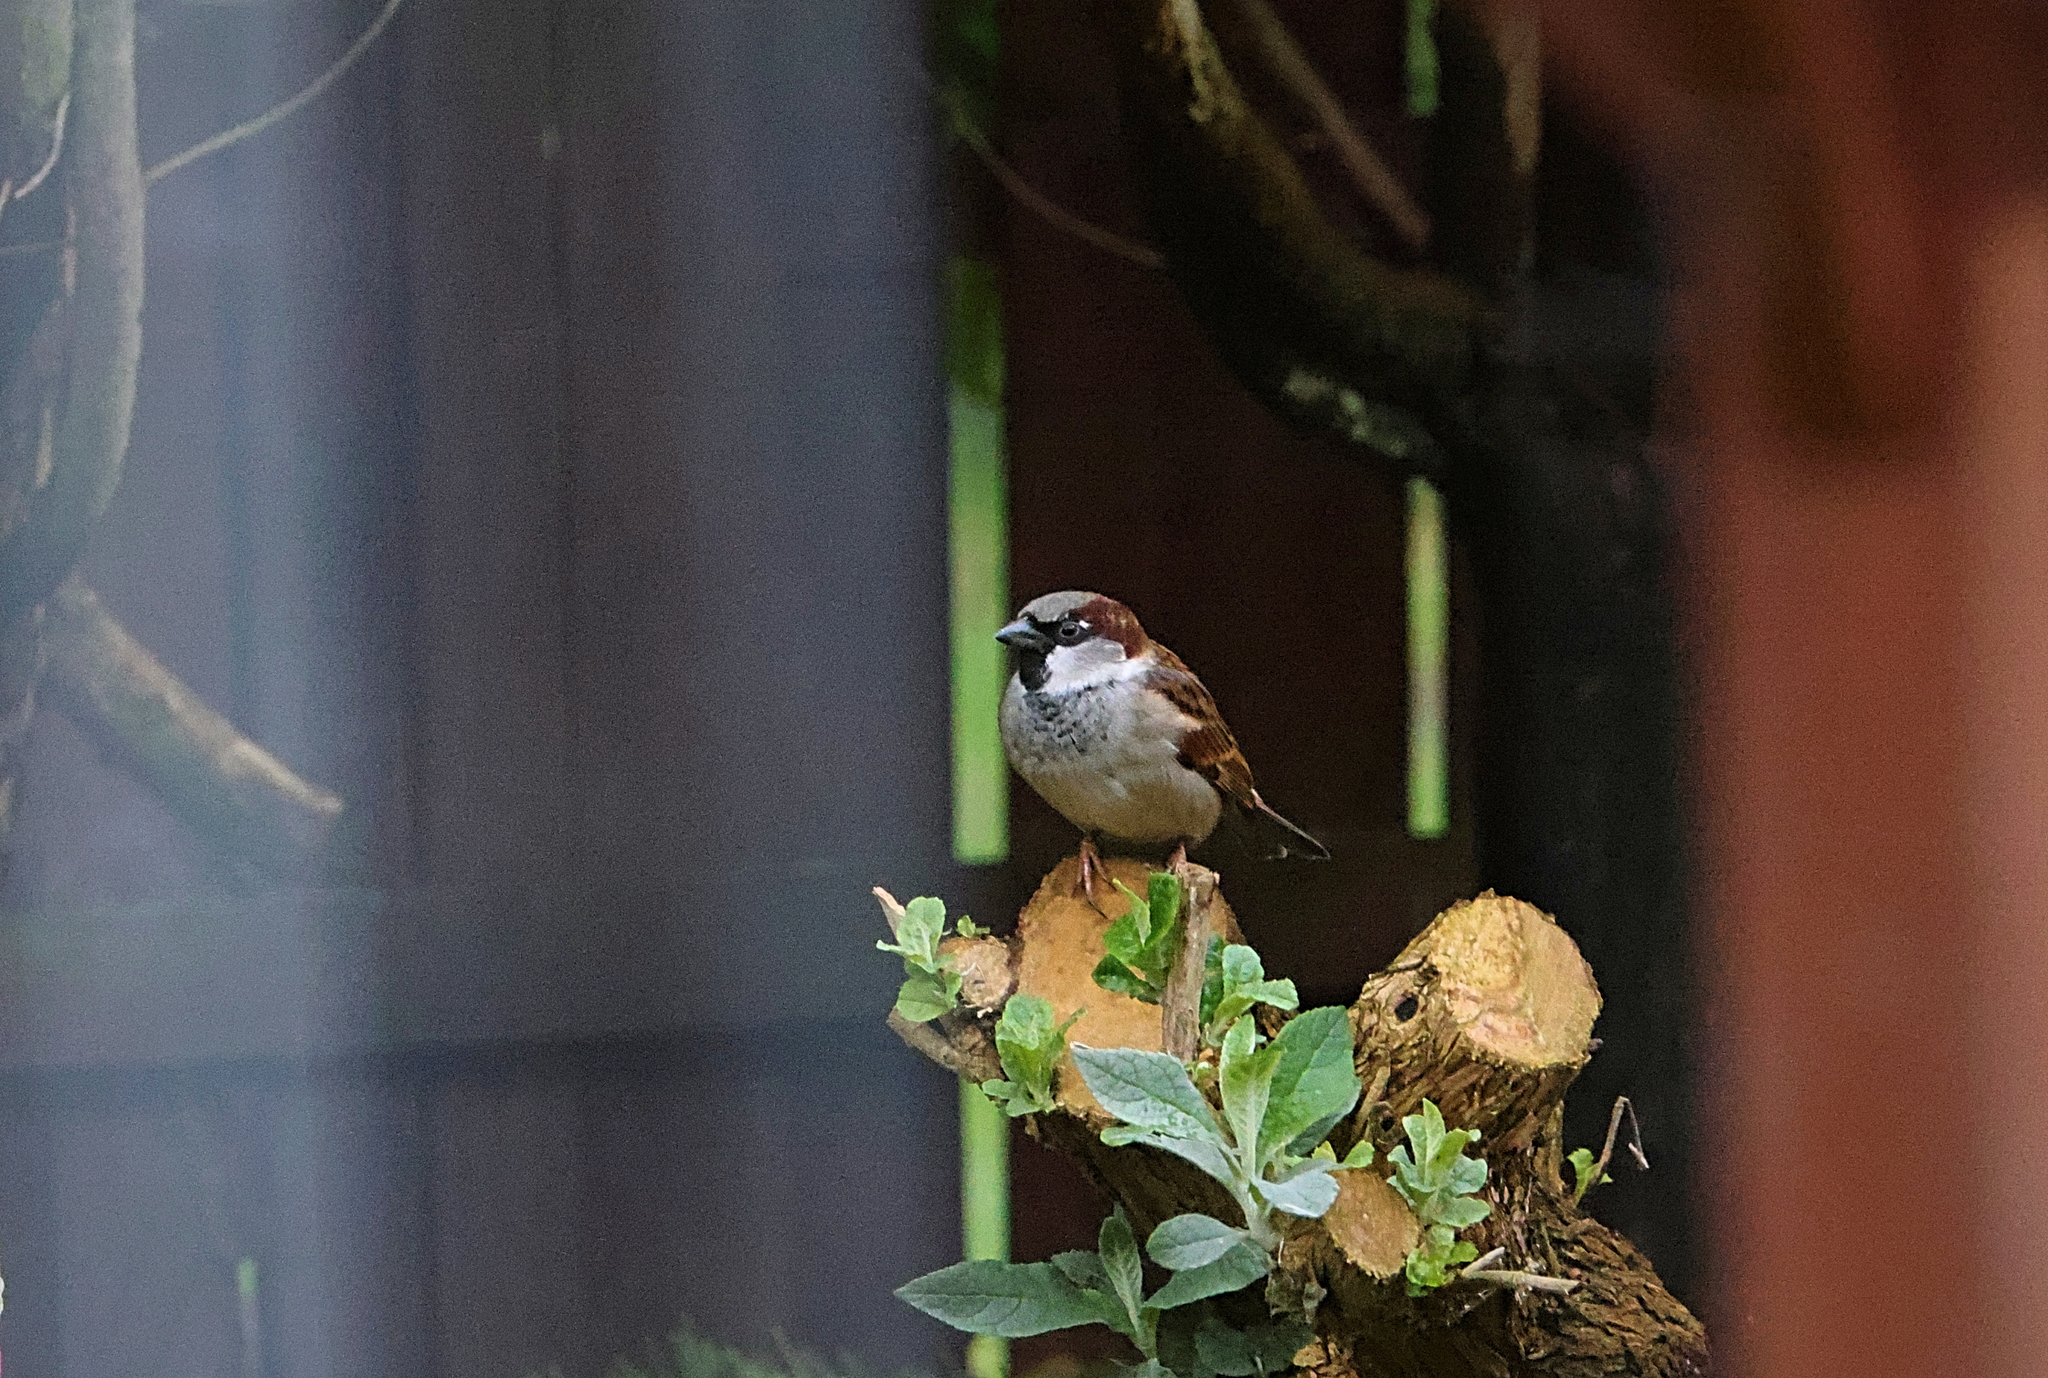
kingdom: Animalia
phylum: Chordata
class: Aves
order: Passeriformes
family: Passeridae
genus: Passer
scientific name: Passer domesticus
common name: House sparrow
